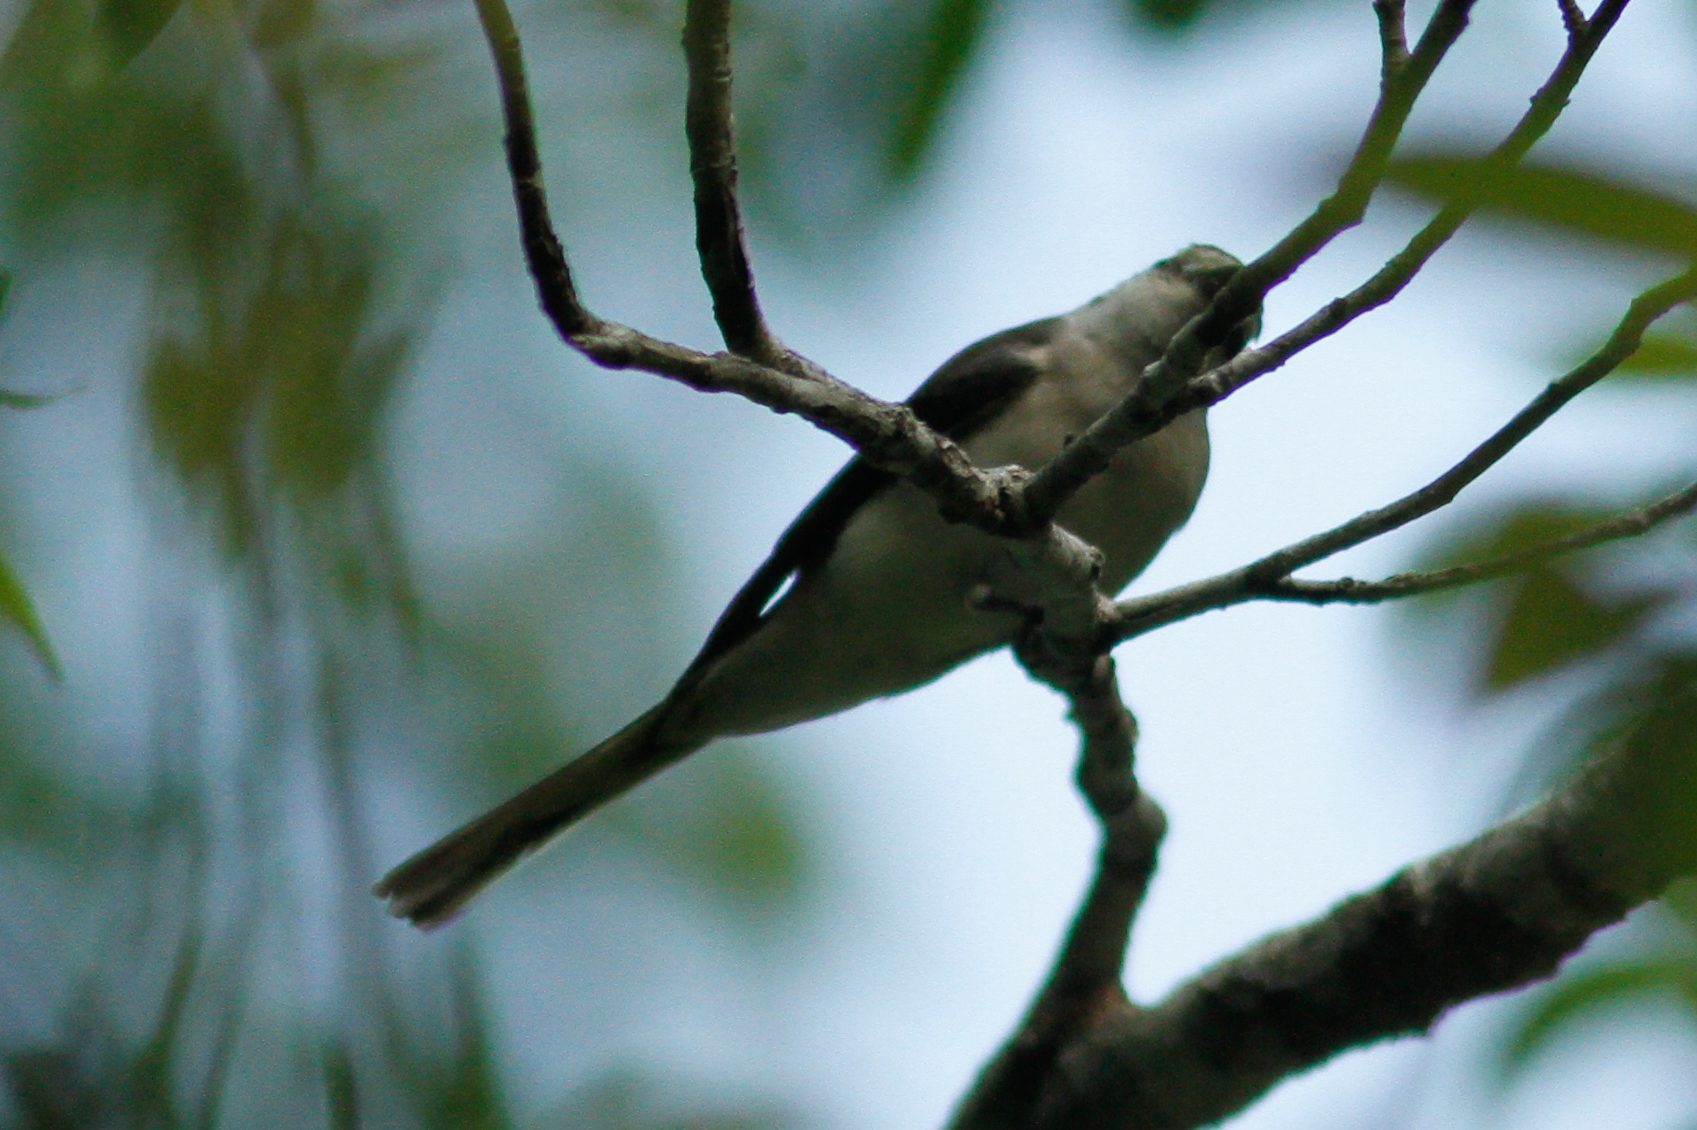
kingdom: Animalia
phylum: Chordata
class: Aves
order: Passeriformes
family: Campephagidae
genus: Pericrocotus
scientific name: Pericrocotus divaricatus
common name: Ashy minivet
